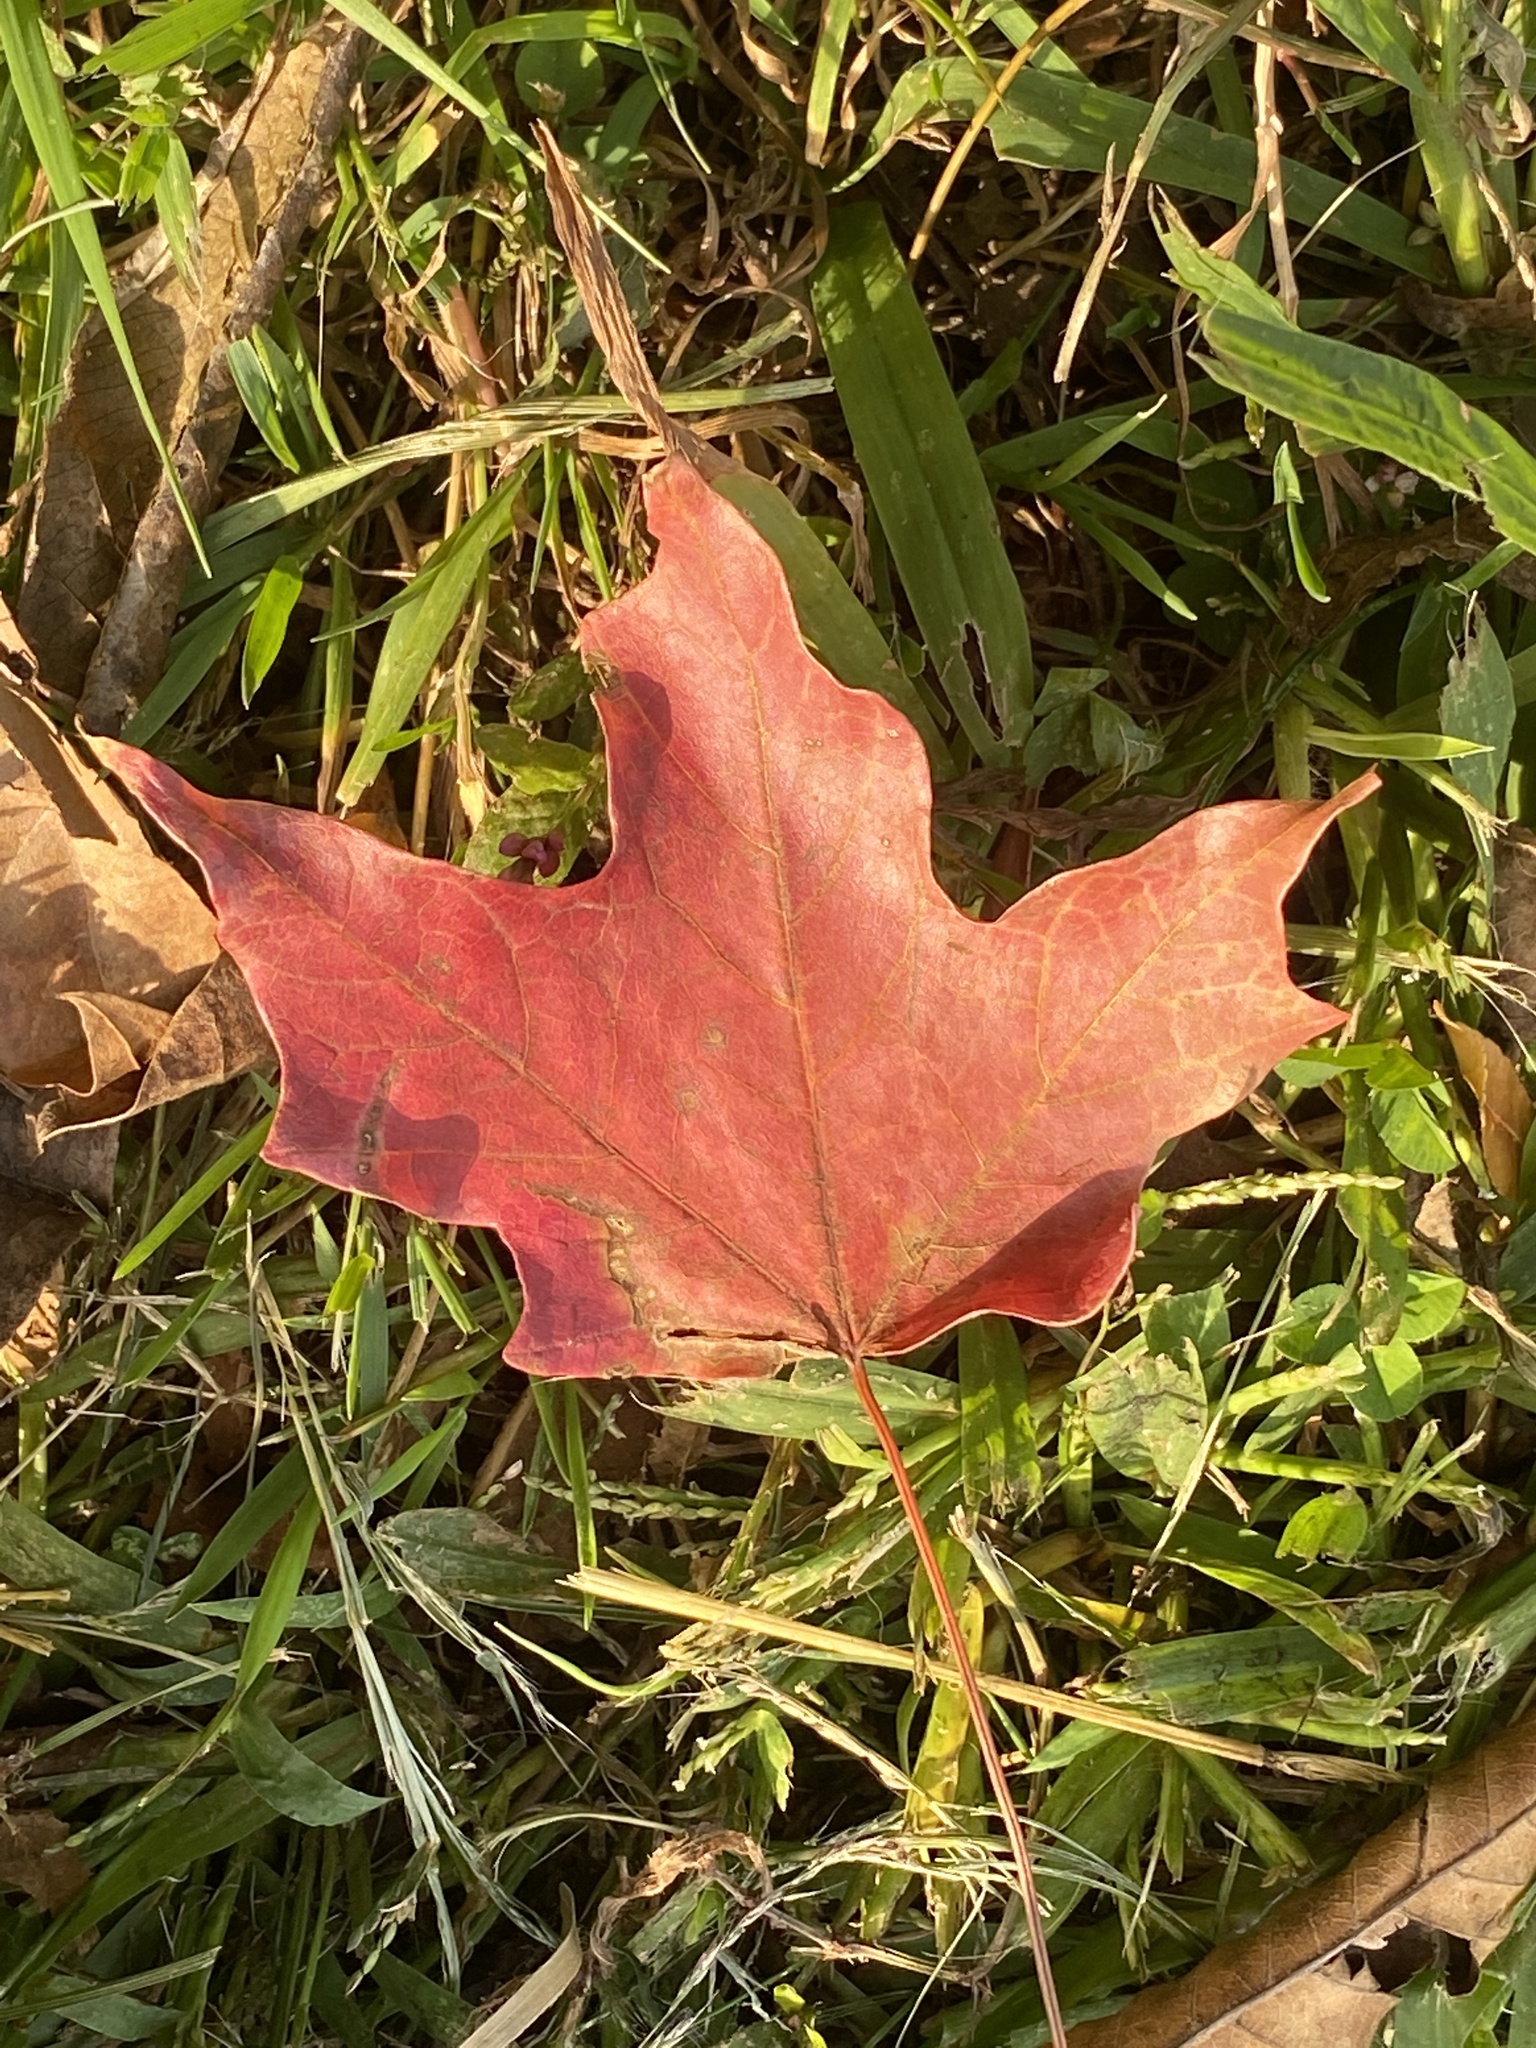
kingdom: Plantae
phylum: Tracheophyta
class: Magnoliopsida
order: Sapindales
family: Sapindaceae
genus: Acer
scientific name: Acer saccharum
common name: Sugar maple
